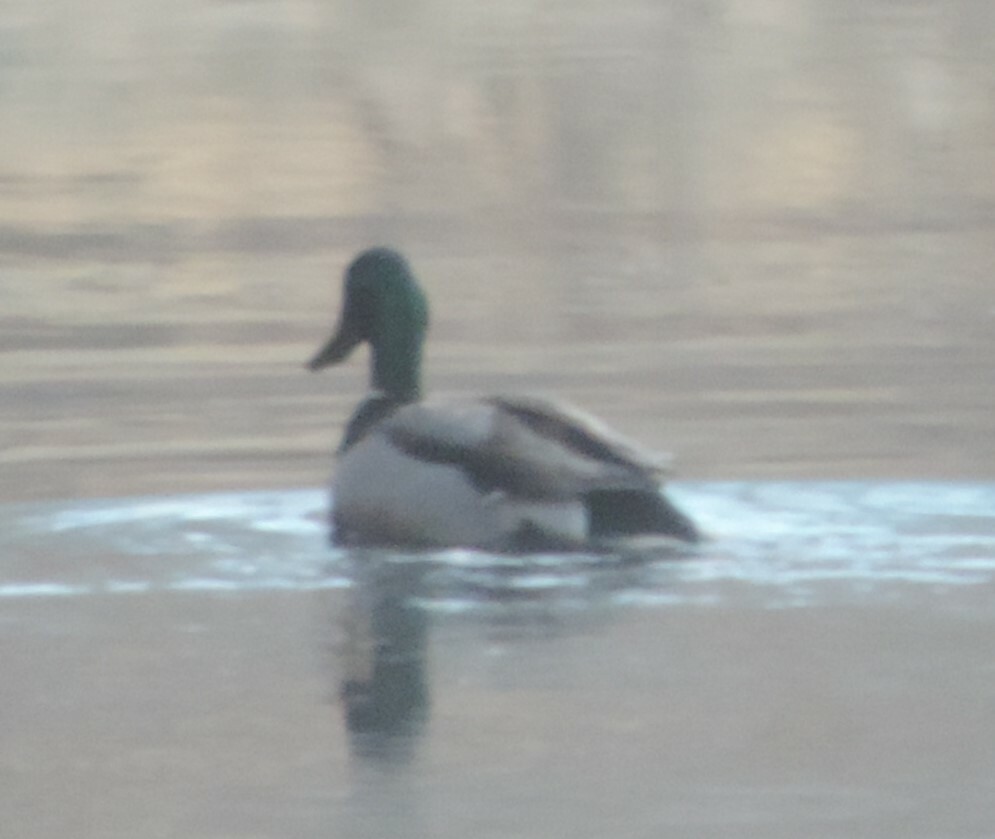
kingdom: Animalia
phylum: Chordata
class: Aves
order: Anseriformes
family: Anatidae
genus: Anas
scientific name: Anas platyrhynchos
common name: Mallard
